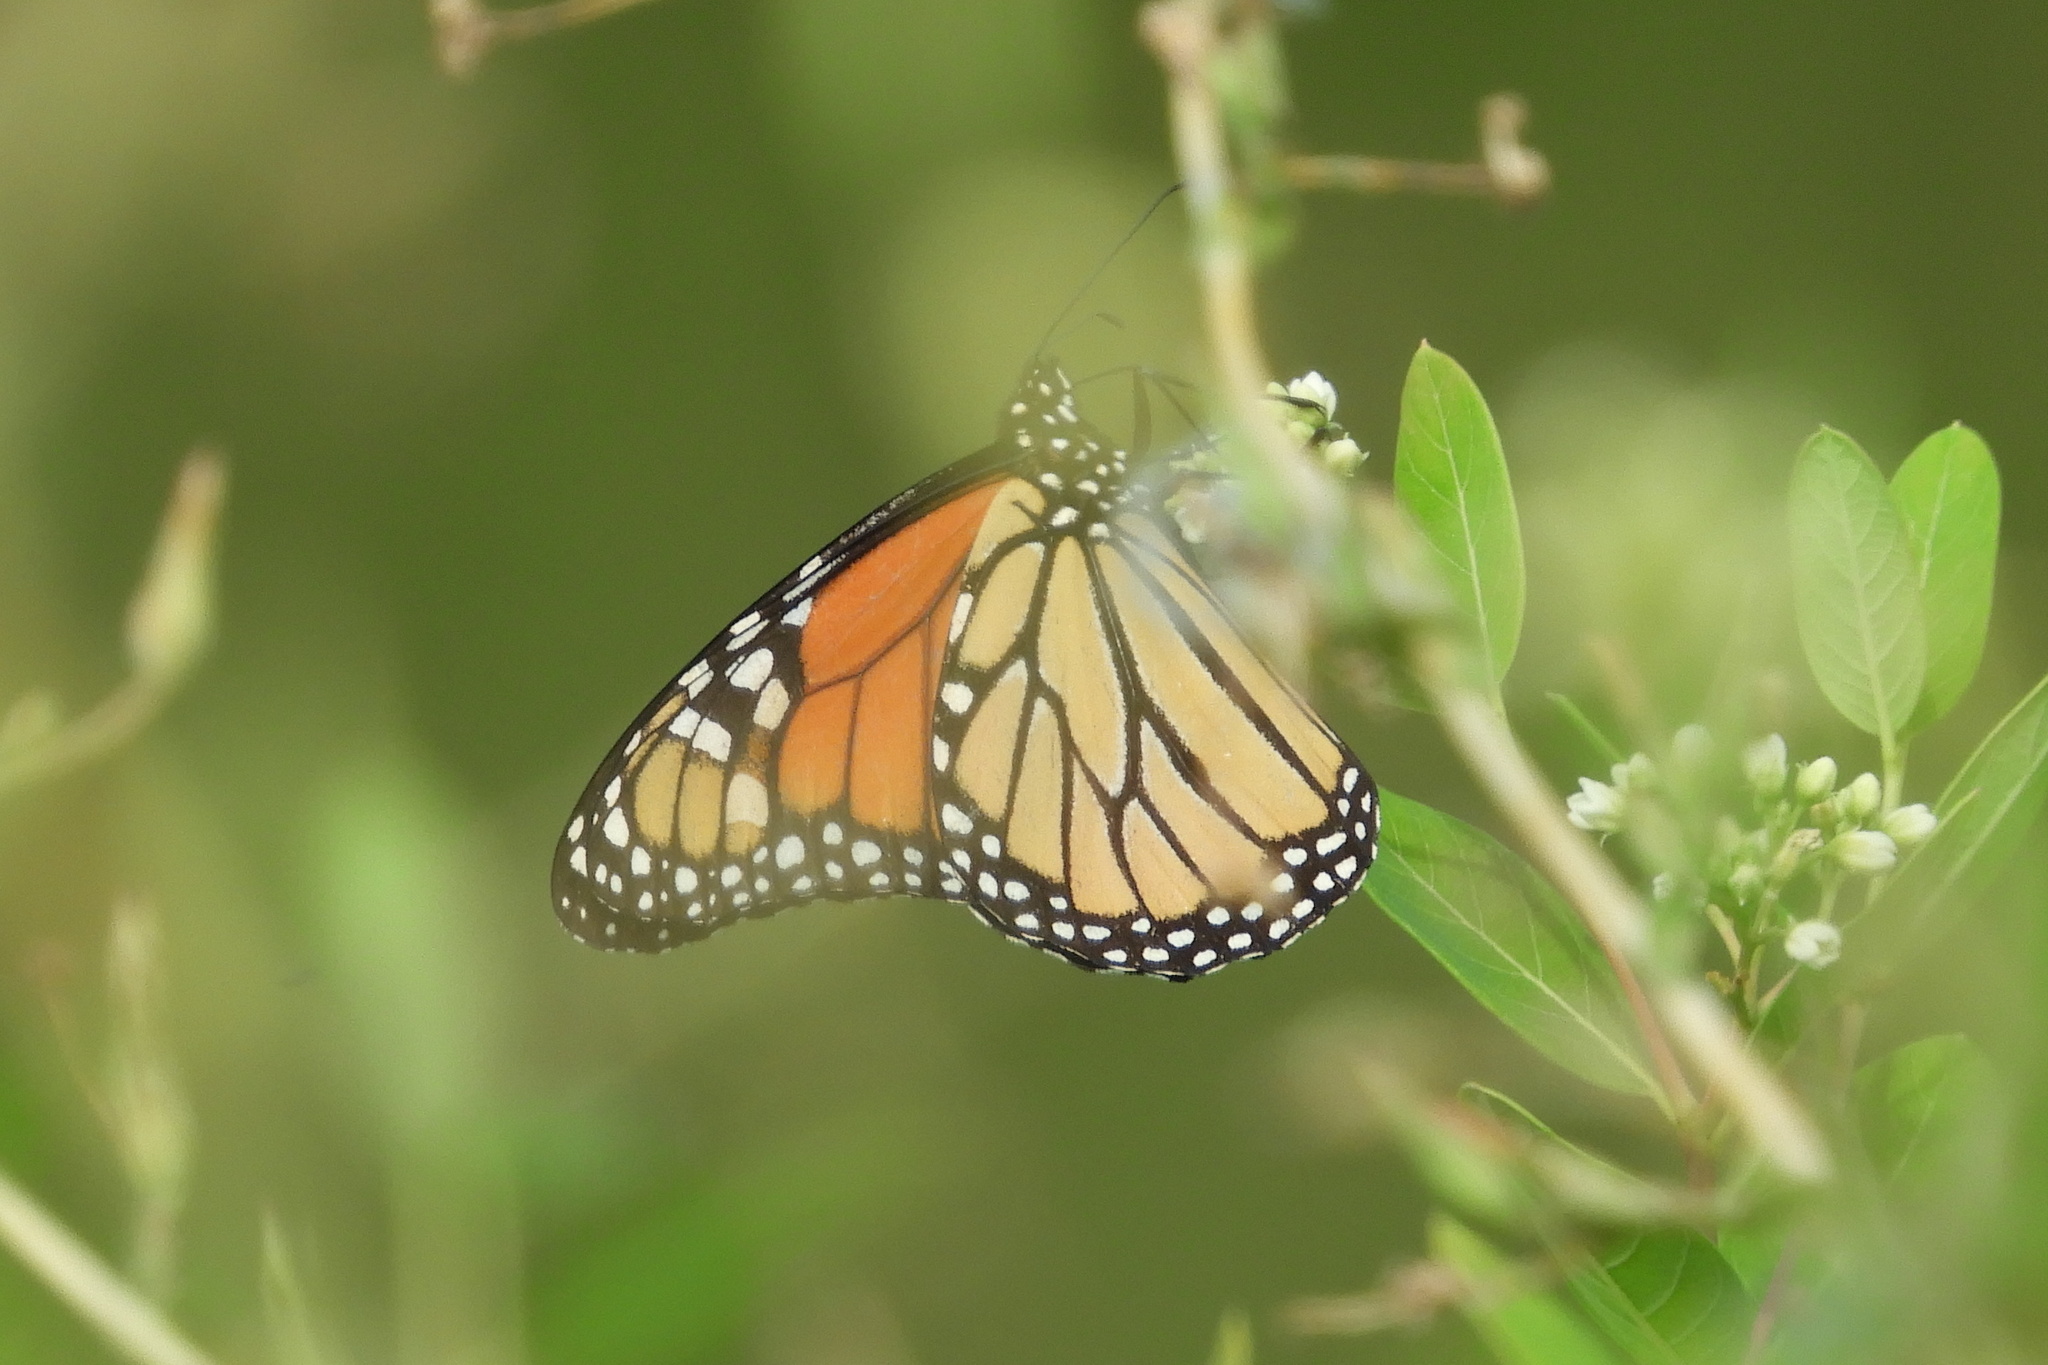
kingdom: Animalia
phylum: Arthropoda
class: Insecta
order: Lepidoptera
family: Nymphalidae
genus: Danaus
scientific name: Danaus plexippus
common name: Monarch
